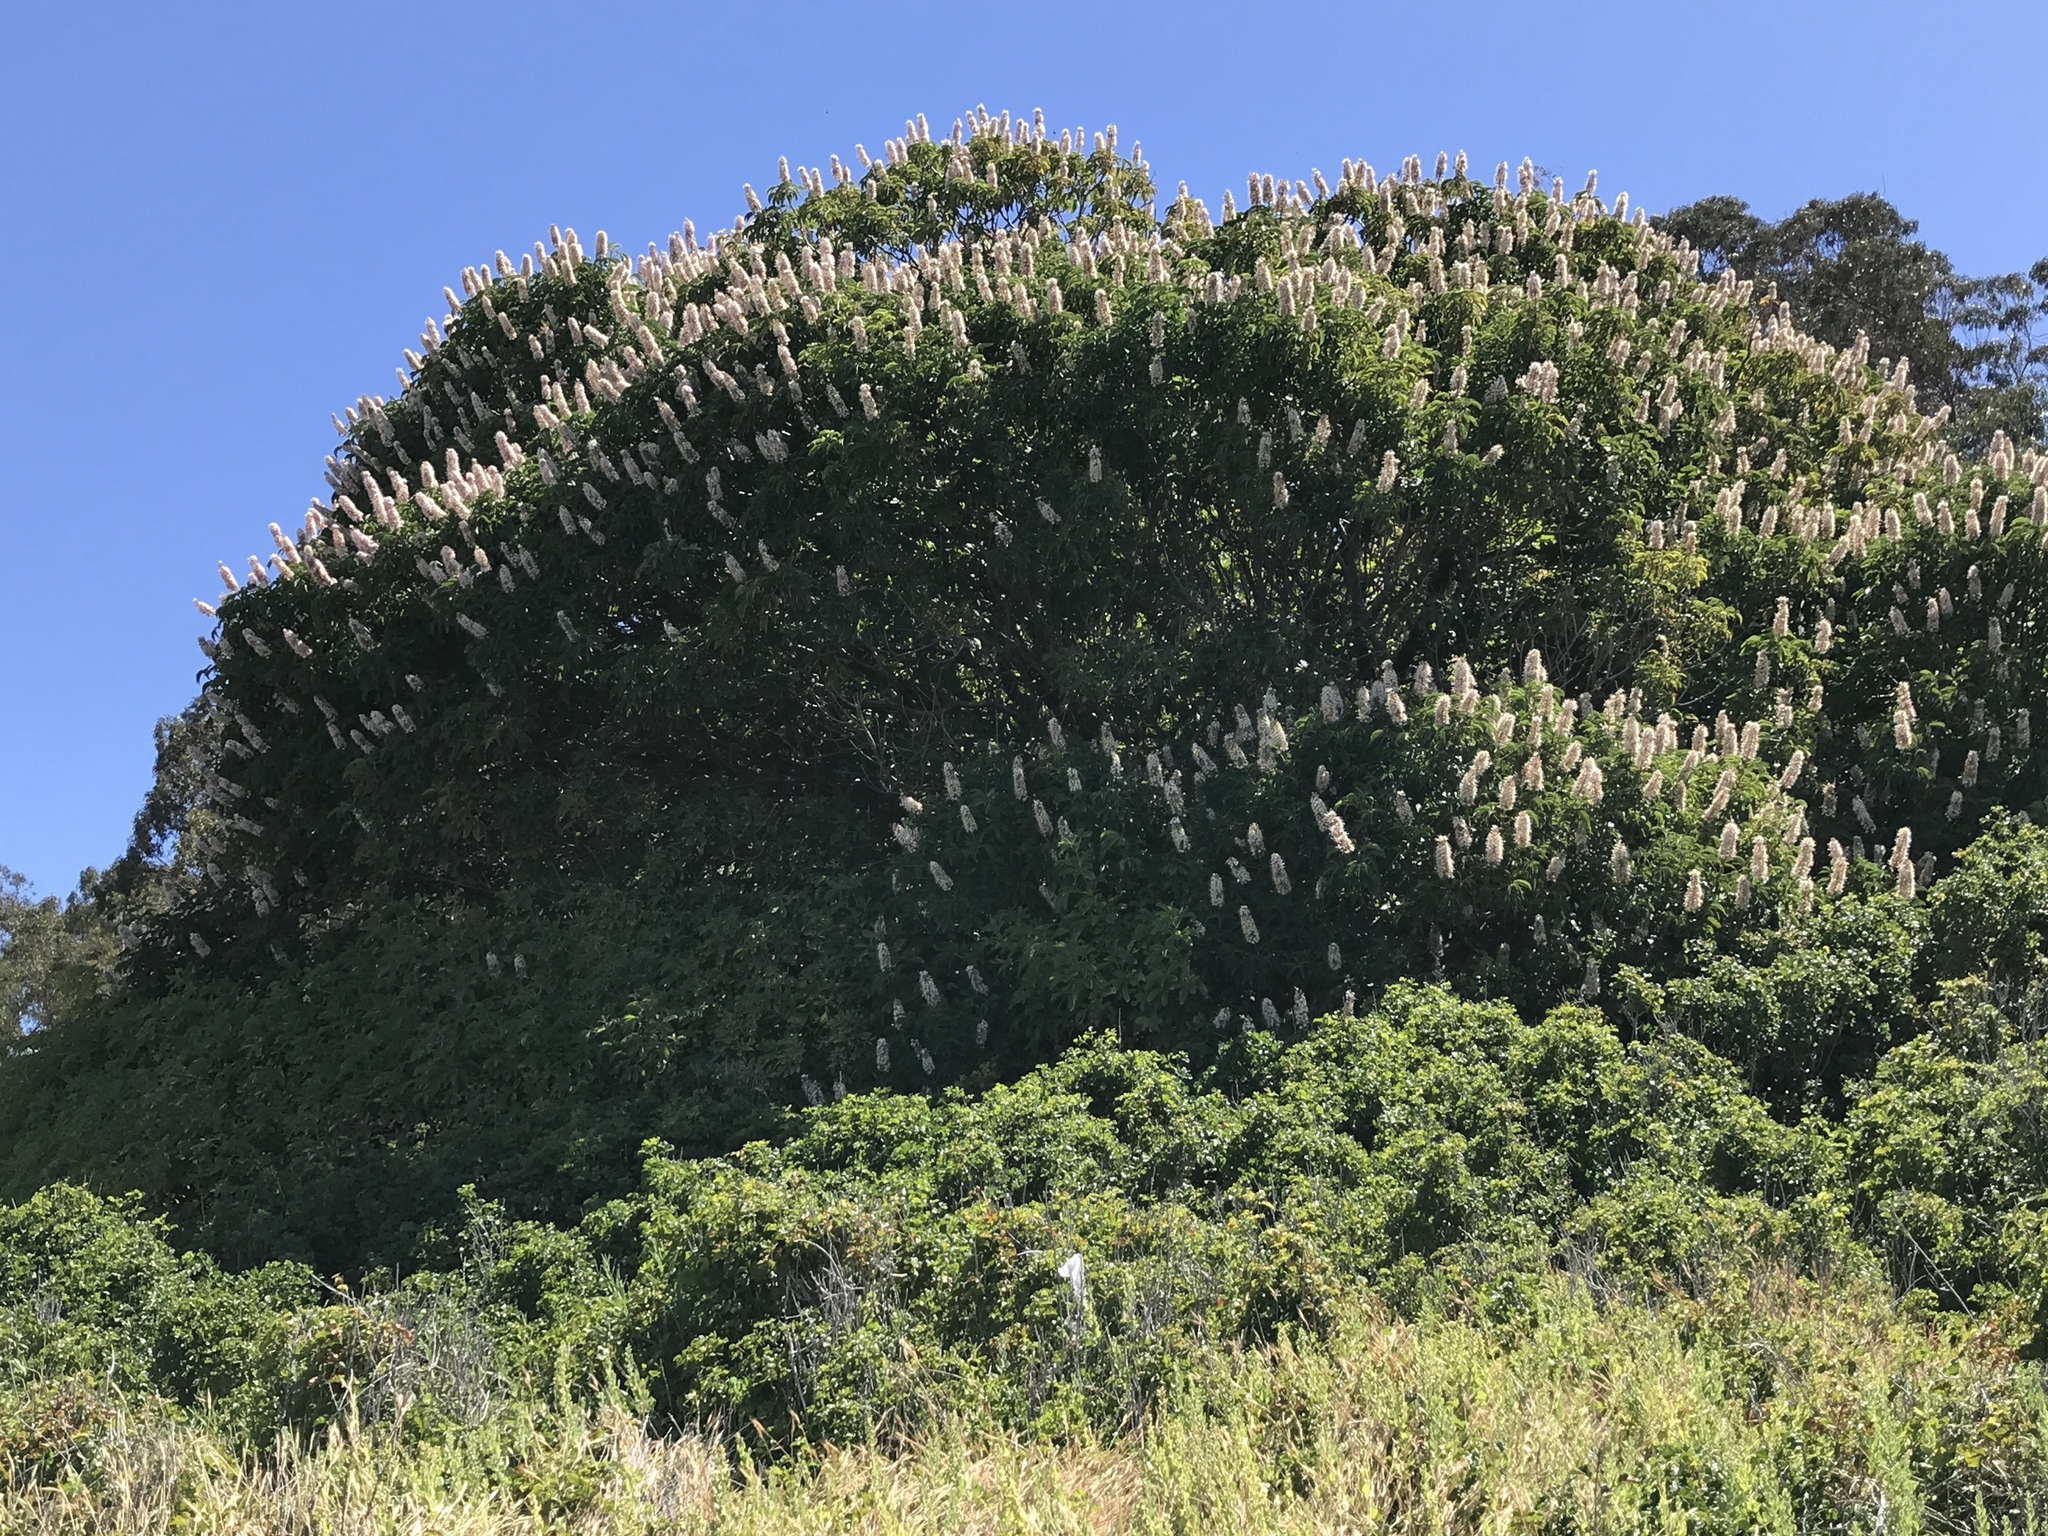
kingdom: Plantae
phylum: Tracheophyta
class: Magnoliopsida
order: Sapindales
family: Sapindaceae
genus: Aesculus
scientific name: Aesculus californica
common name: California buckeye
